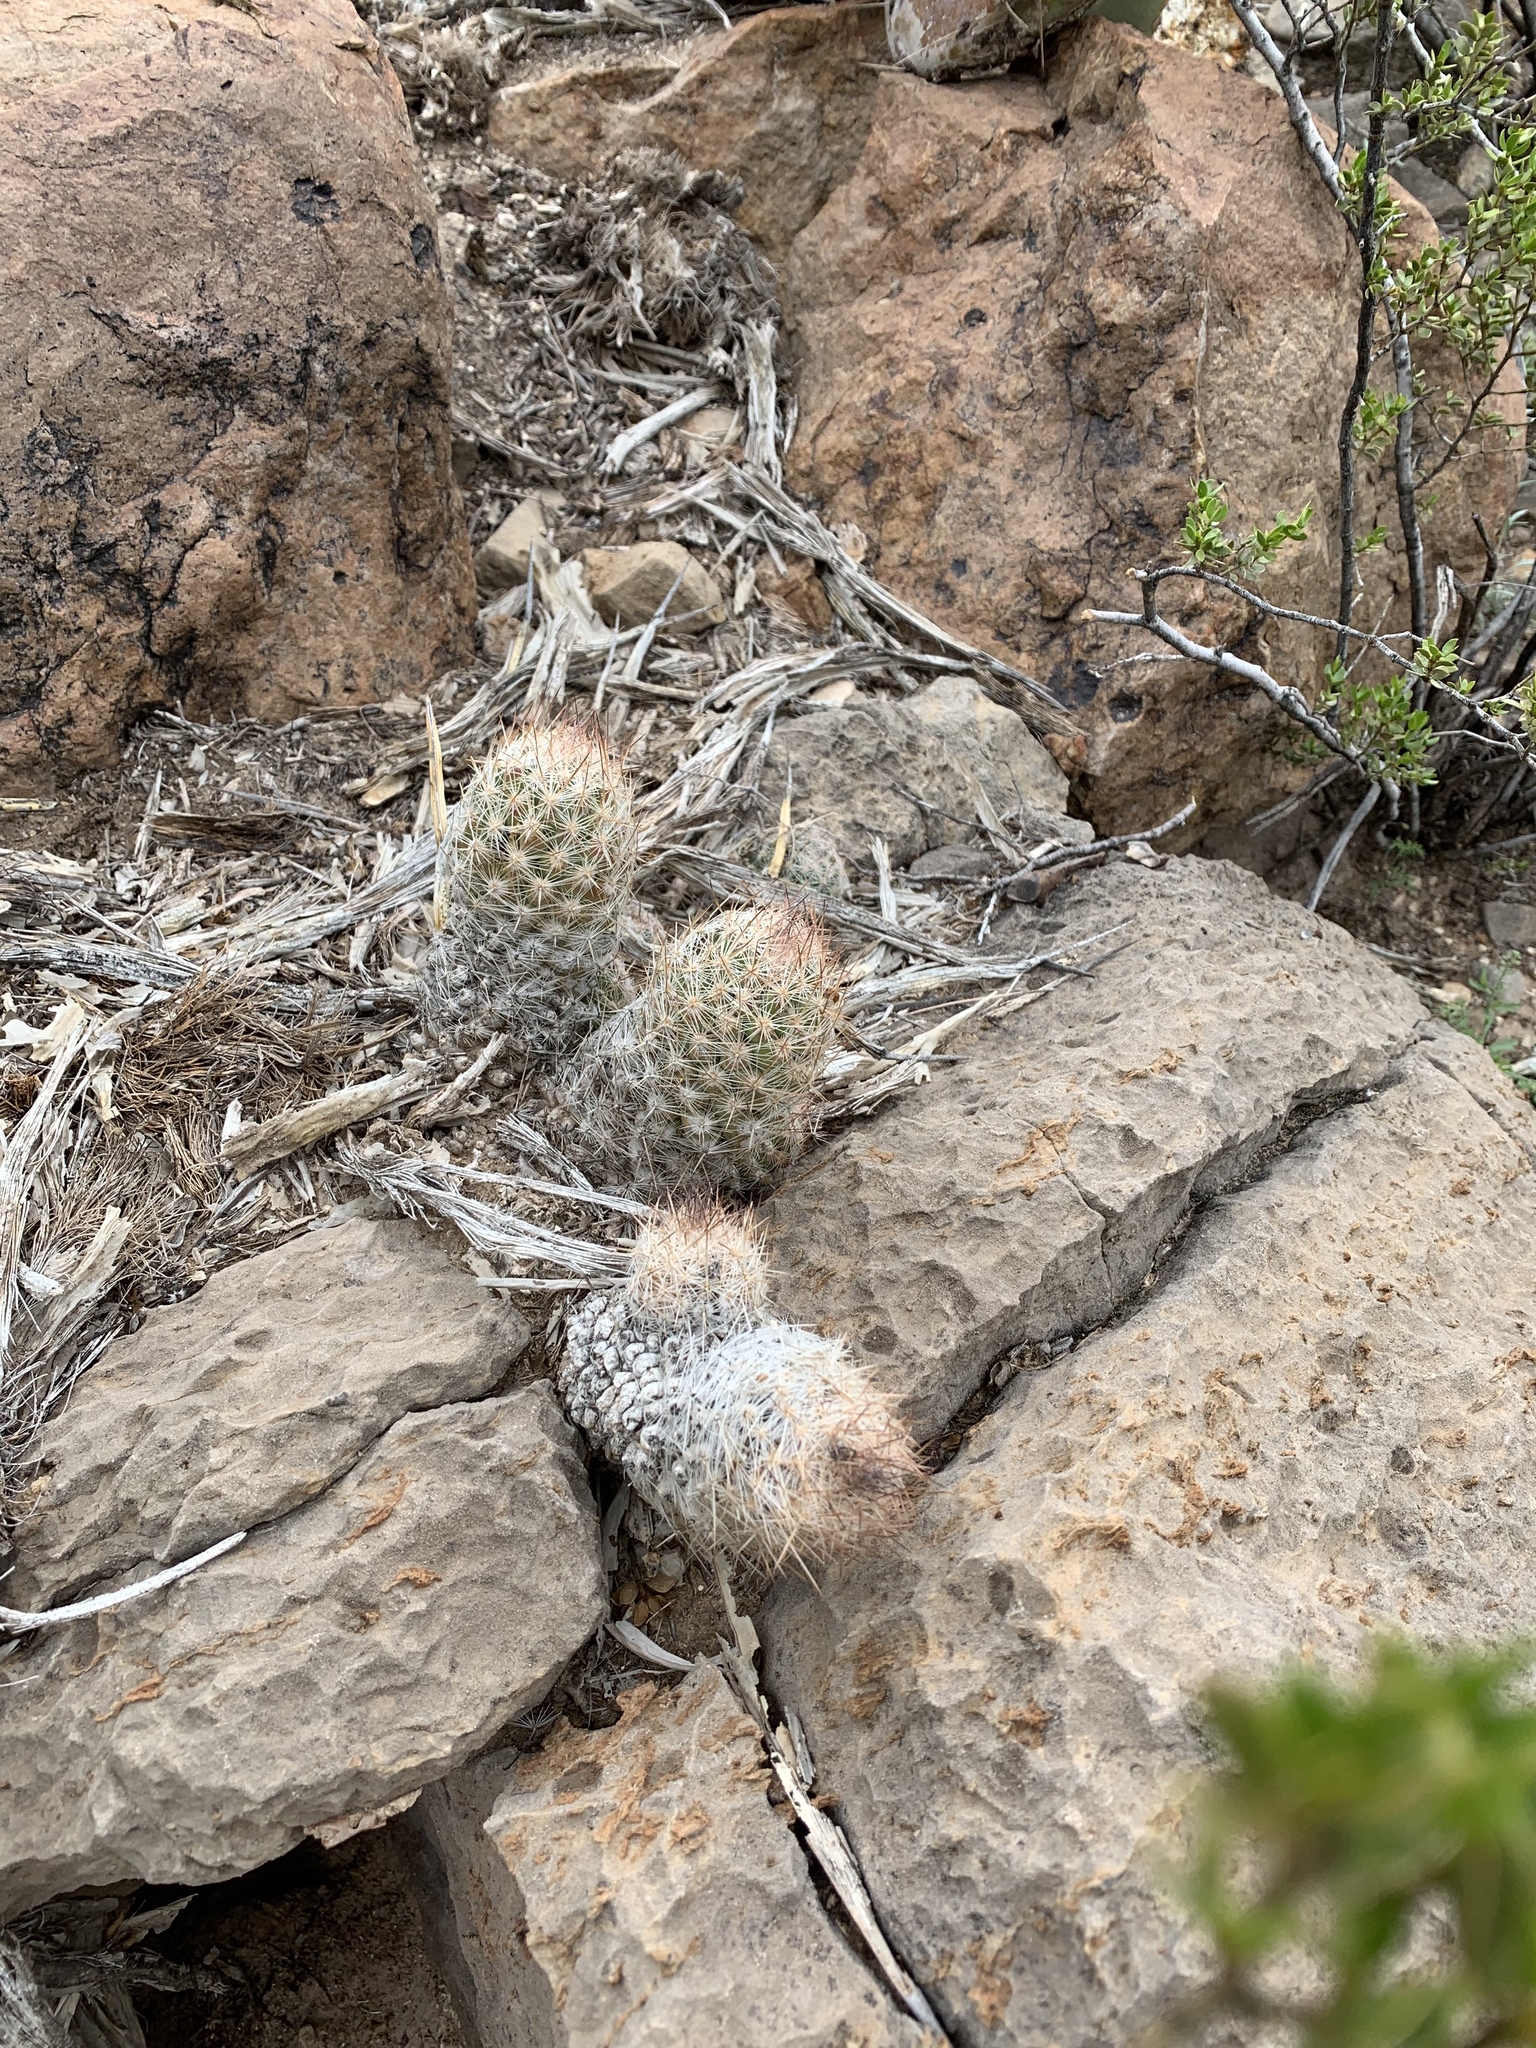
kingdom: Plantae
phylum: Tracheophyta
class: Magnoliopsida
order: Caryophyllales
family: Cactaceae
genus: Pelecyphora
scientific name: Pelecyphora tuberculosa
